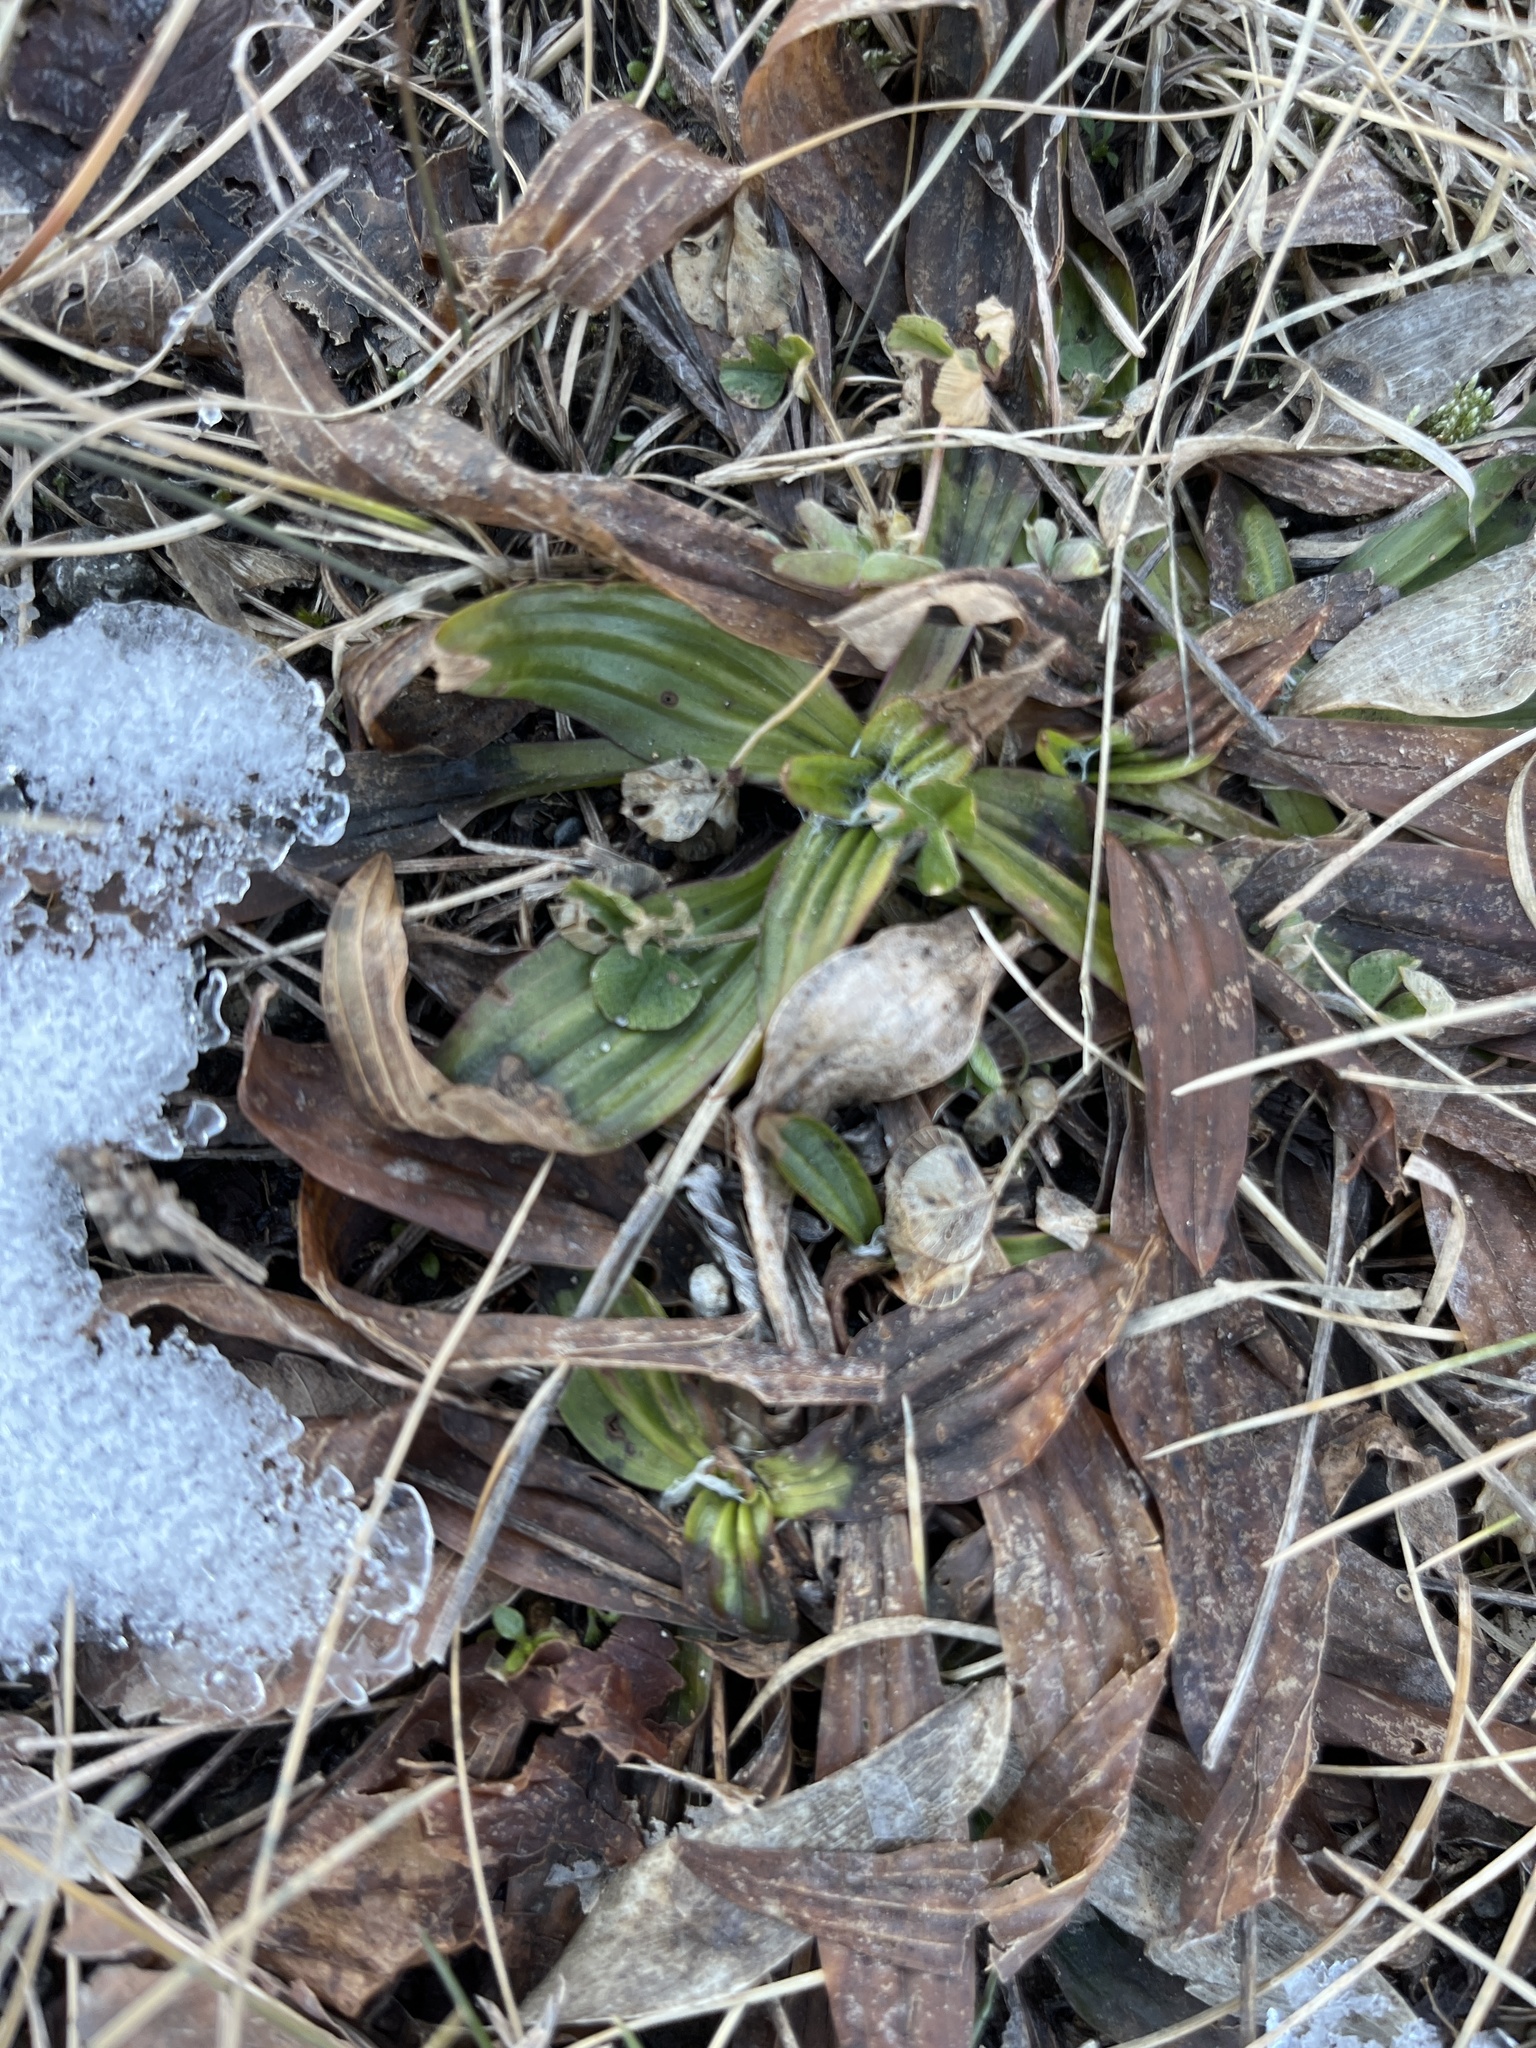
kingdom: Plantae
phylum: Tracheophyta
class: Magnoliopsida
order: Lamiales
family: Plantaginaceae
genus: Plantago
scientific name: Plantago lanceolata
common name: Ribwort plantain
